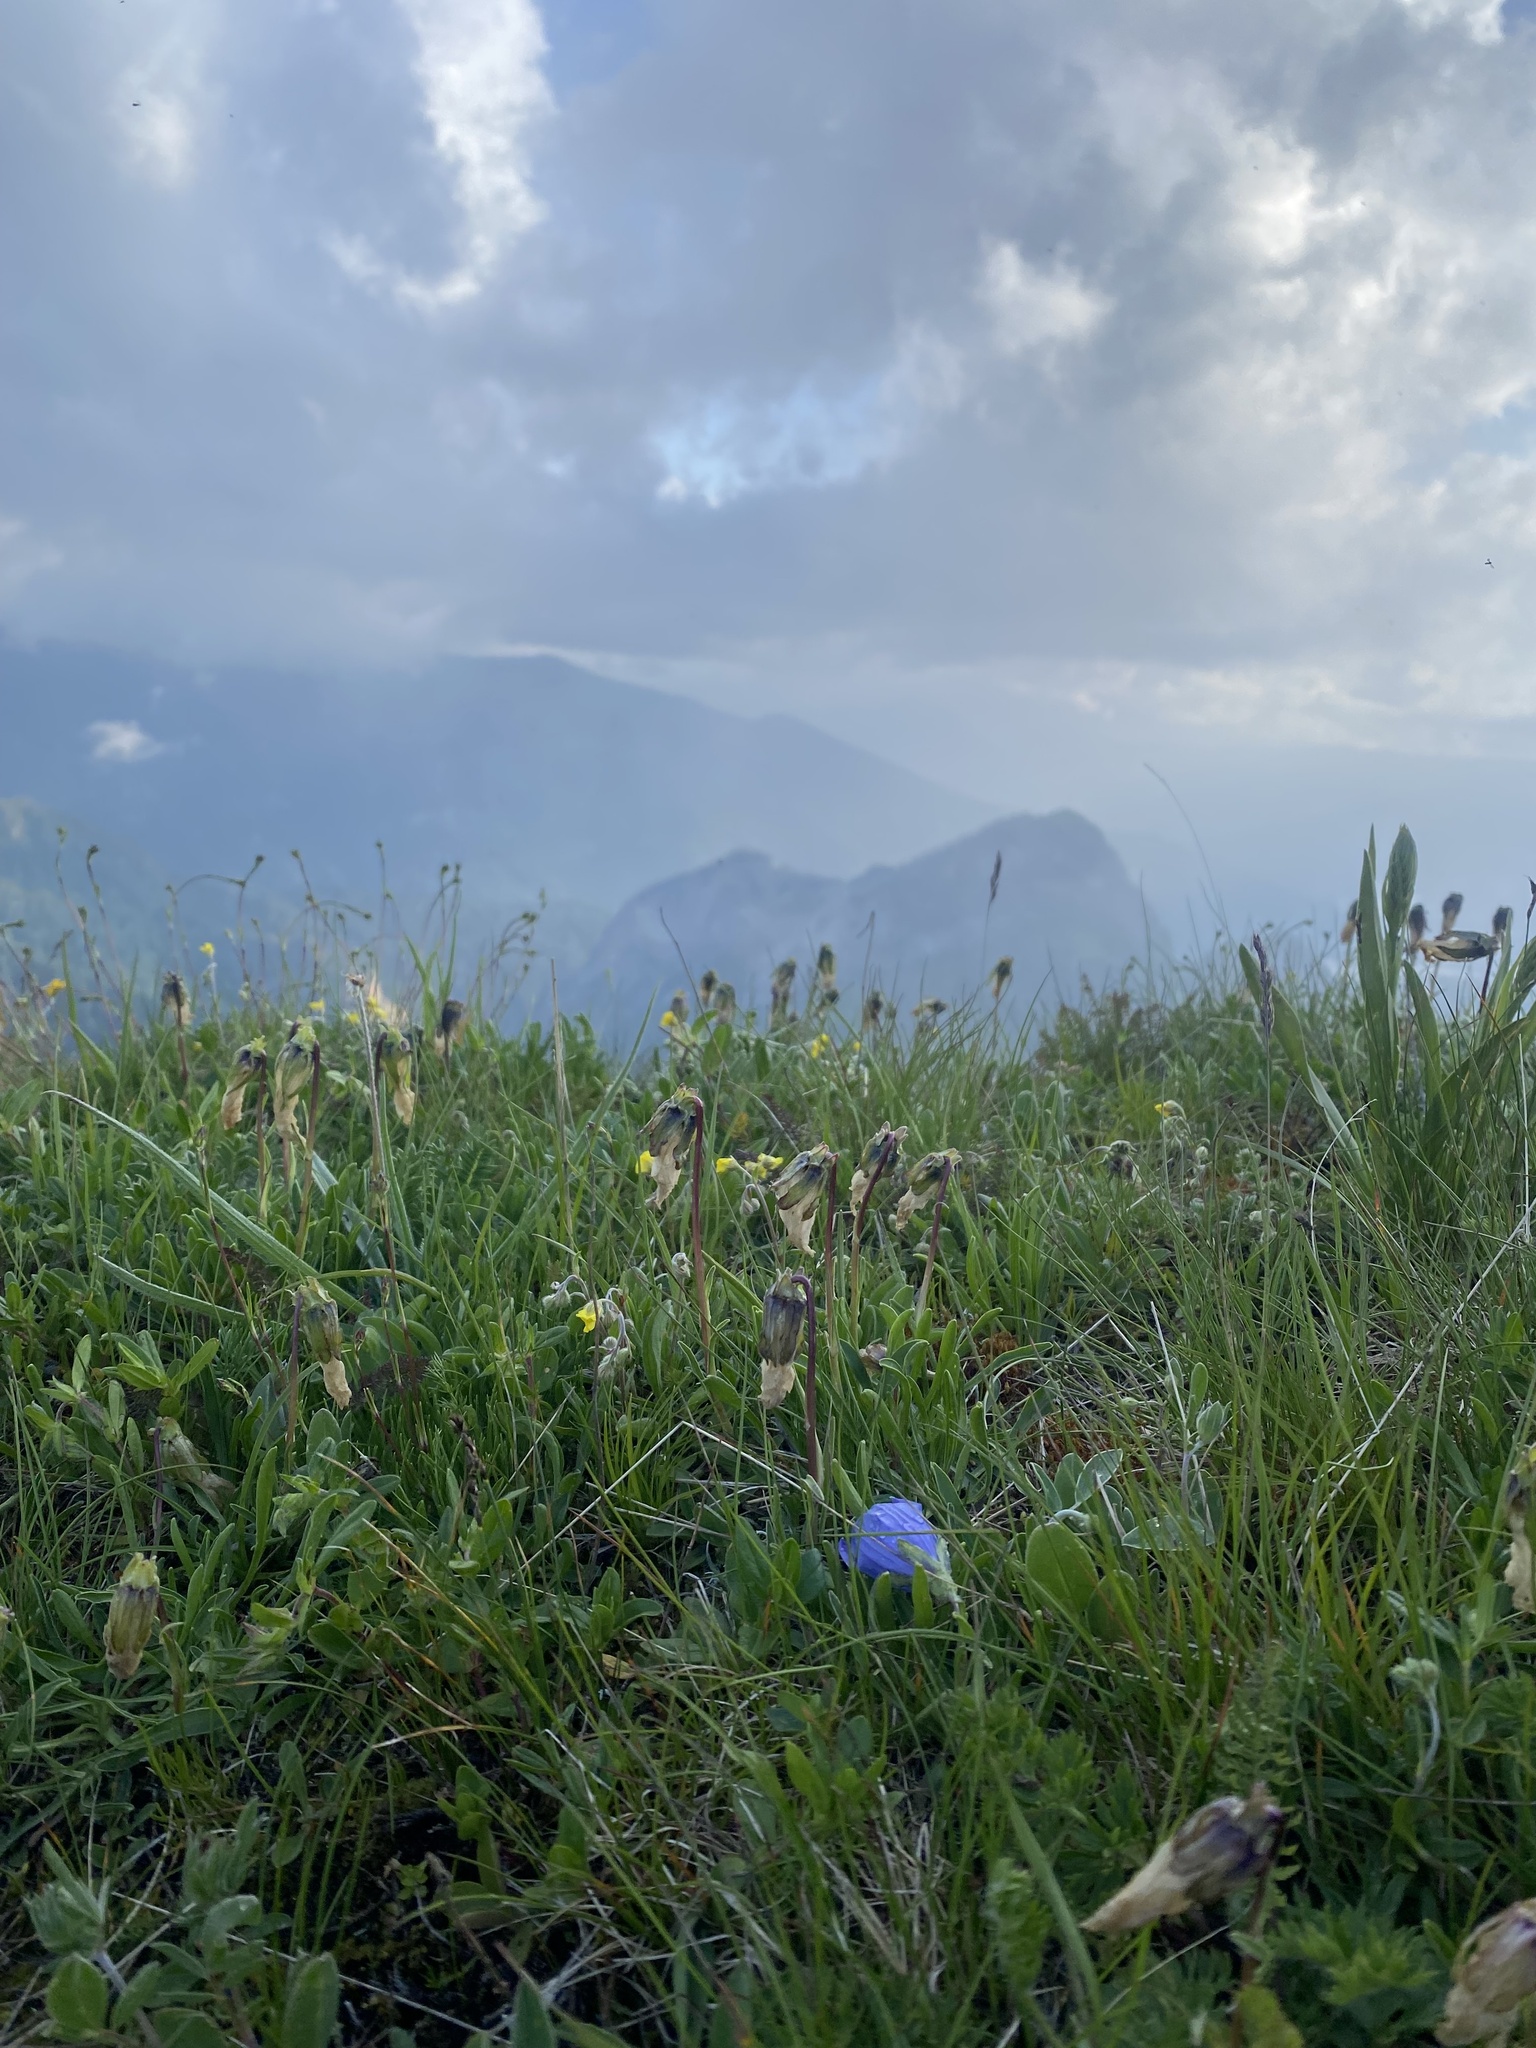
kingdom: Plantae
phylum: Tracheophyta
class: Magnoliopsida
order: Asterales
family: Campanulaceae
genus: Campanula
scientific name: Campanula tridentata
